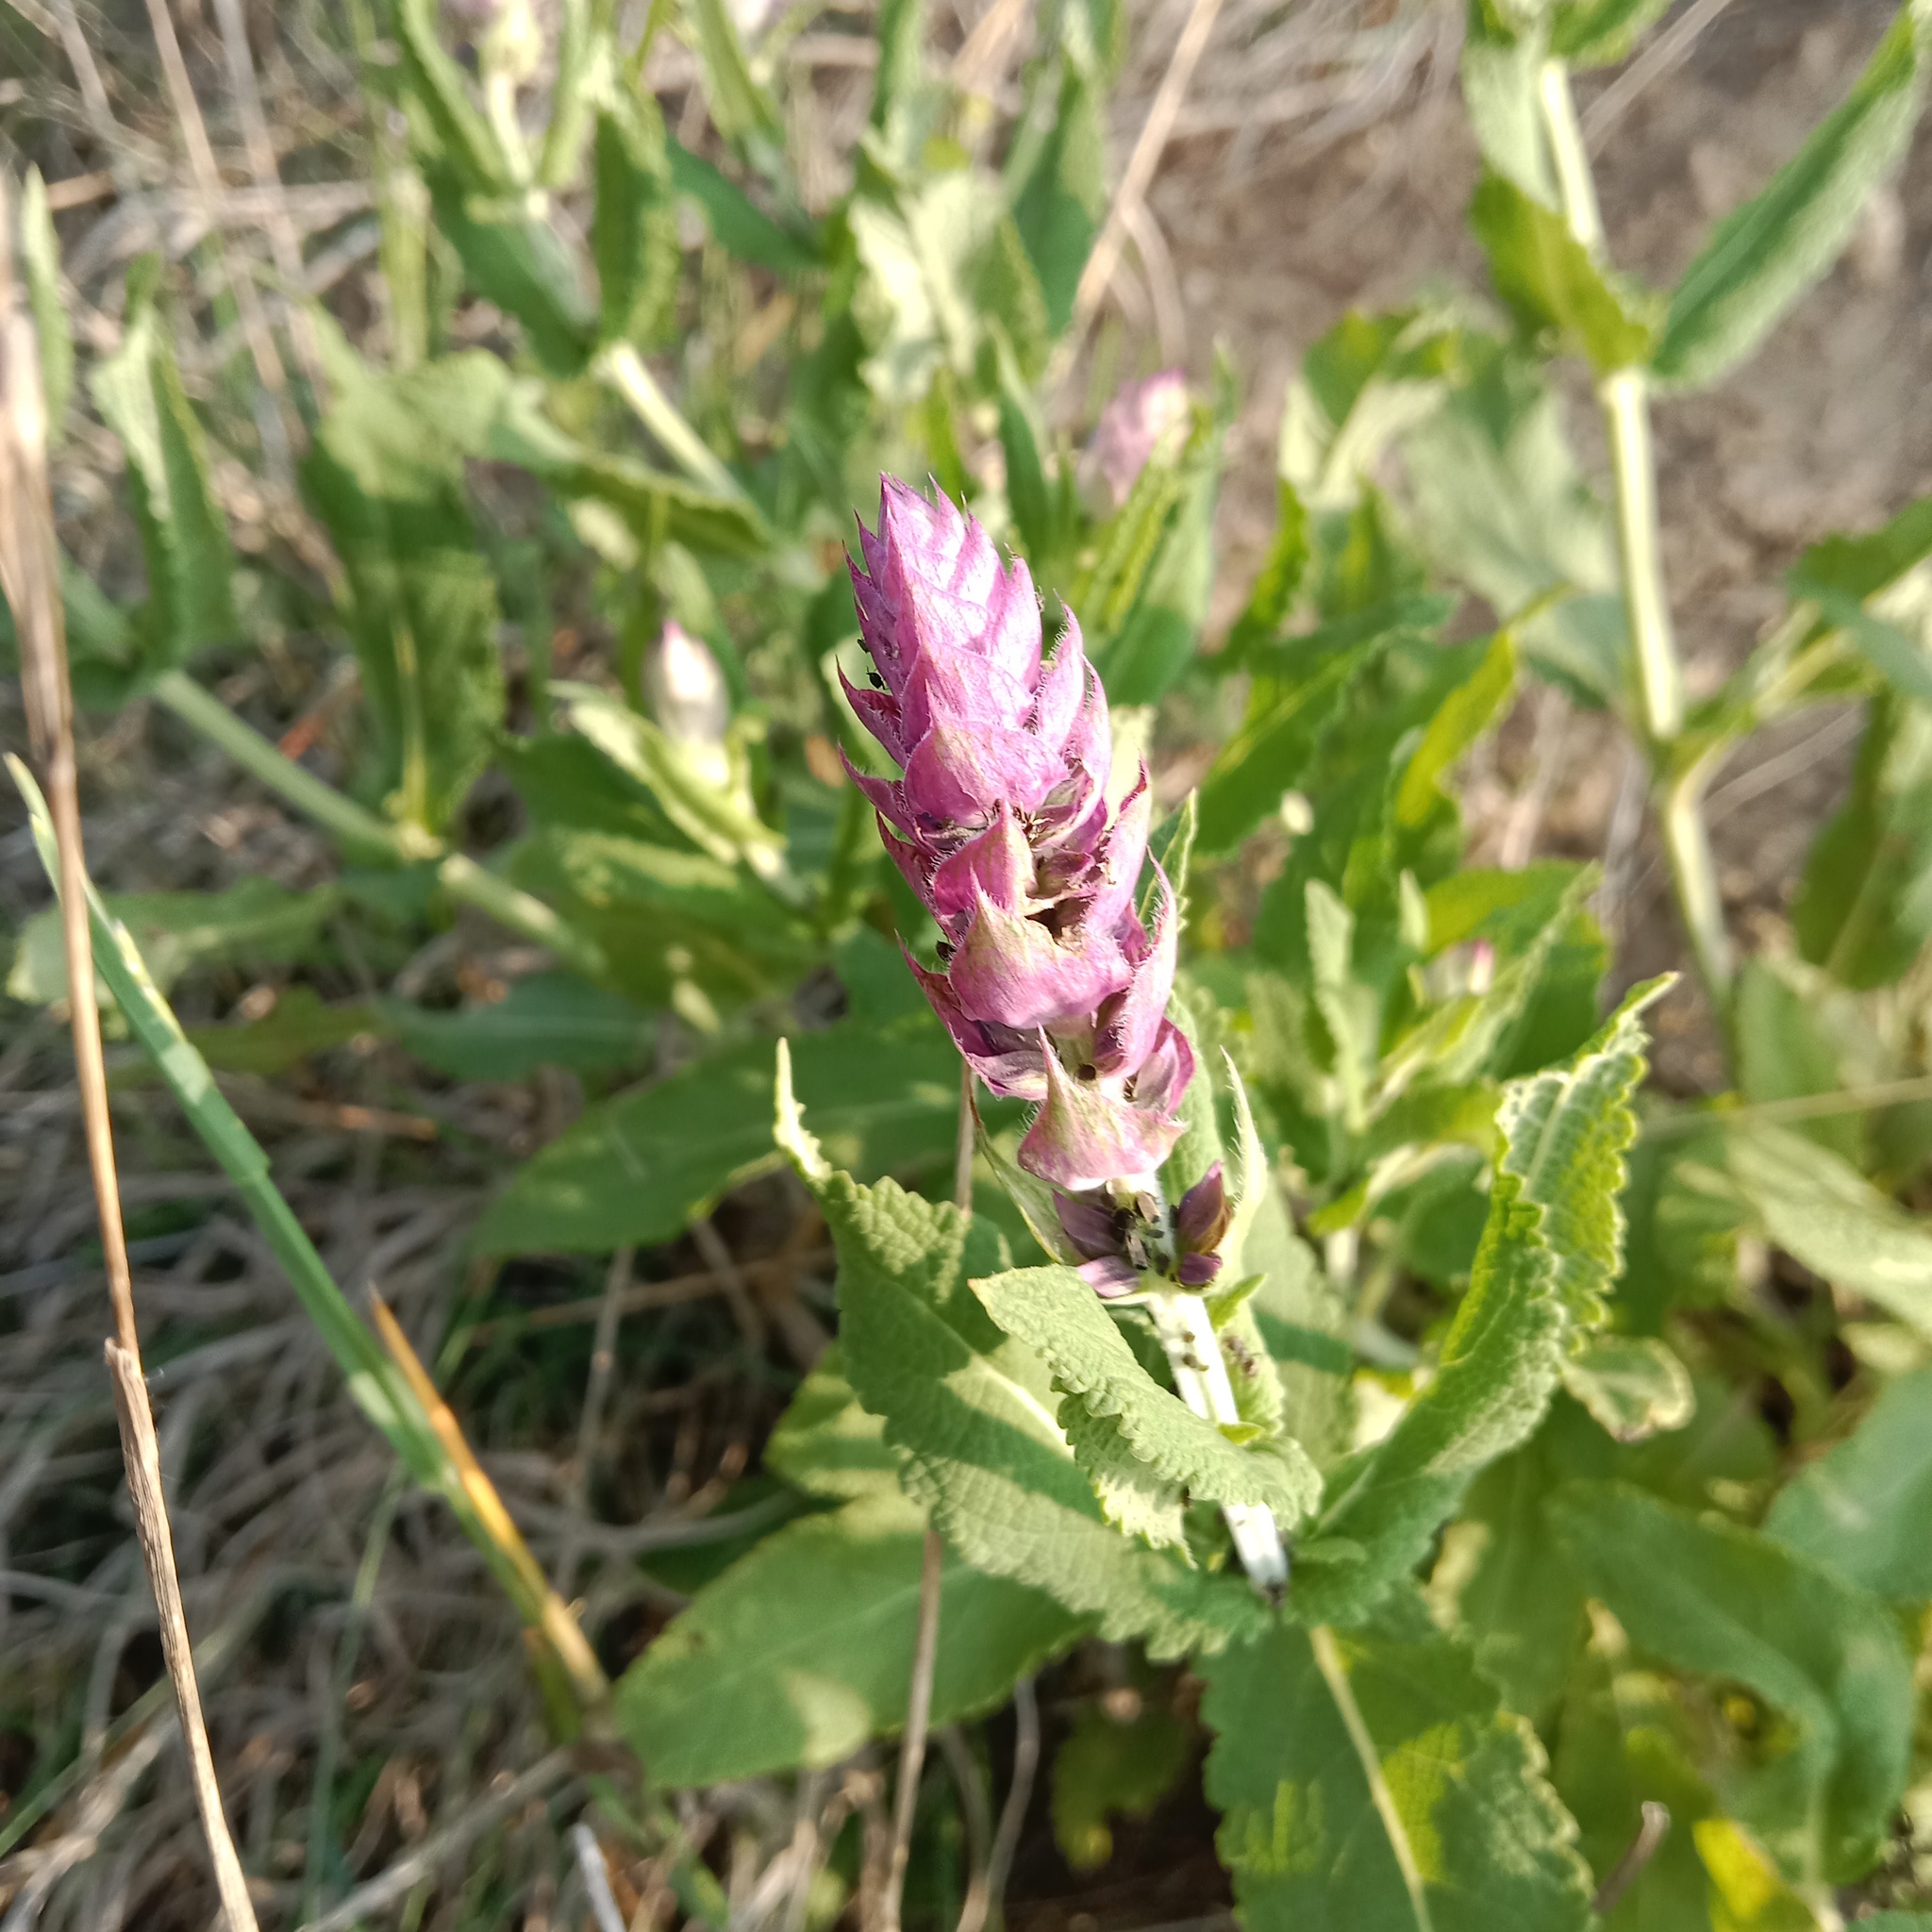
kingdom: Plantae
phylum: Tracheophyta
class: Magnoliopsida
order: Lamiales
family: Lamiaceae
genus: Salvia
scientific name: Salvia nemorosa
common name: Balkan clary
